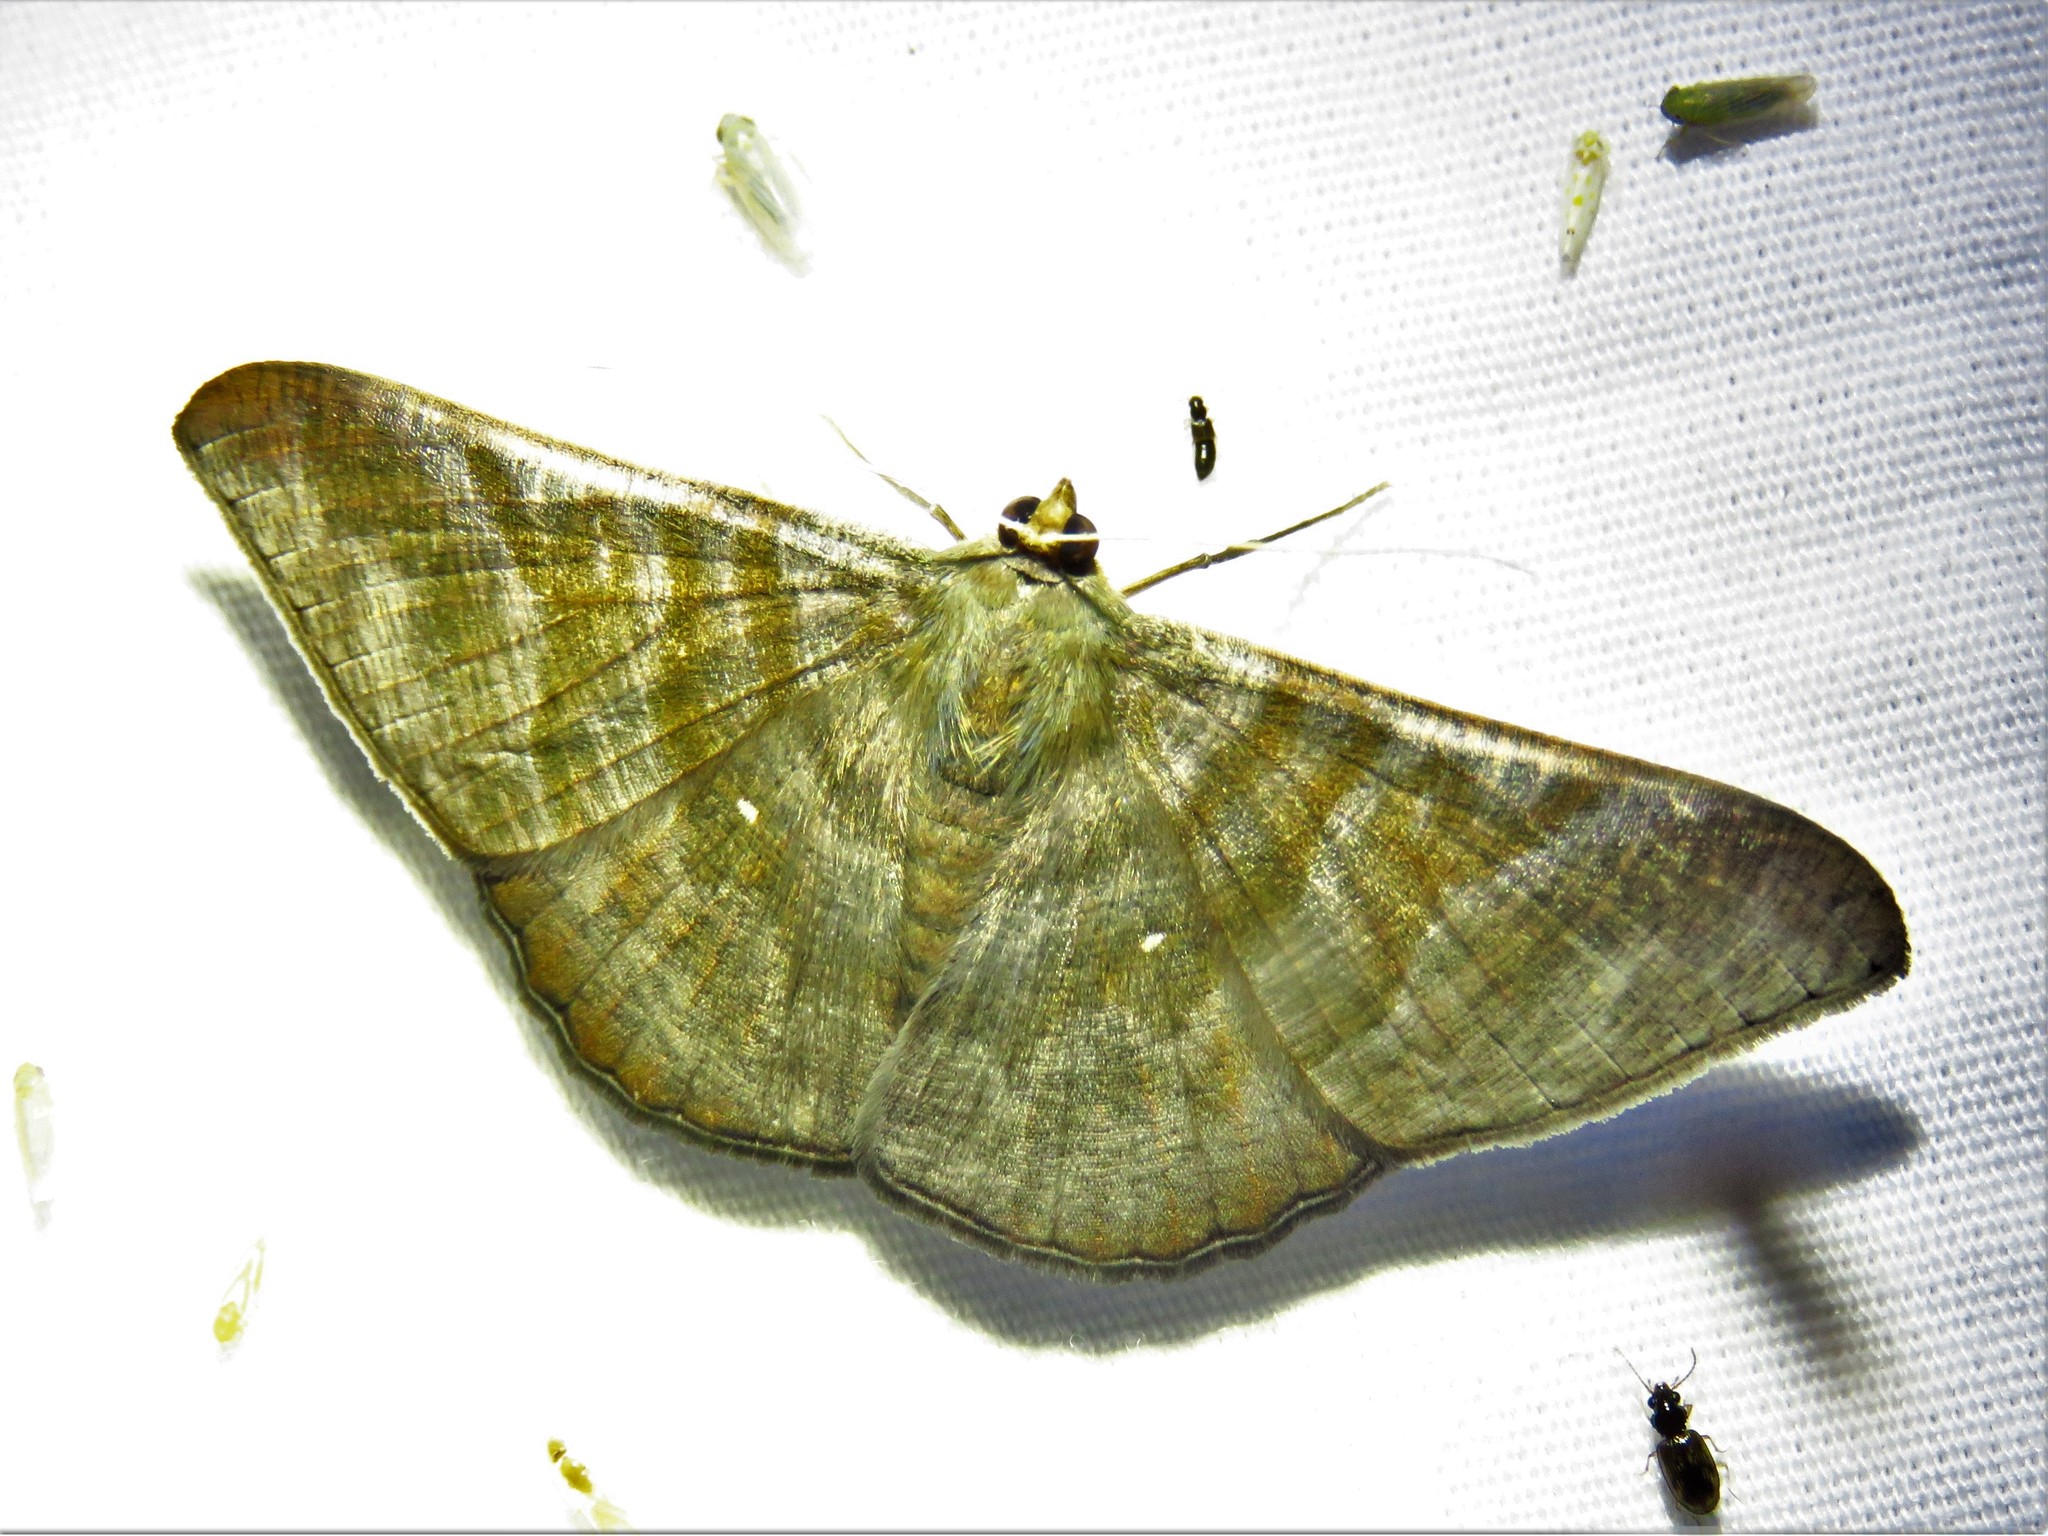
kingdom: Animalia
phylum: Arthropoda
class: Insecta
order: Lepidoptera
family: Geometridae
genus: Sphacelodes
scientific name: Sphacelodes vulneraria
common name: Looper moth
